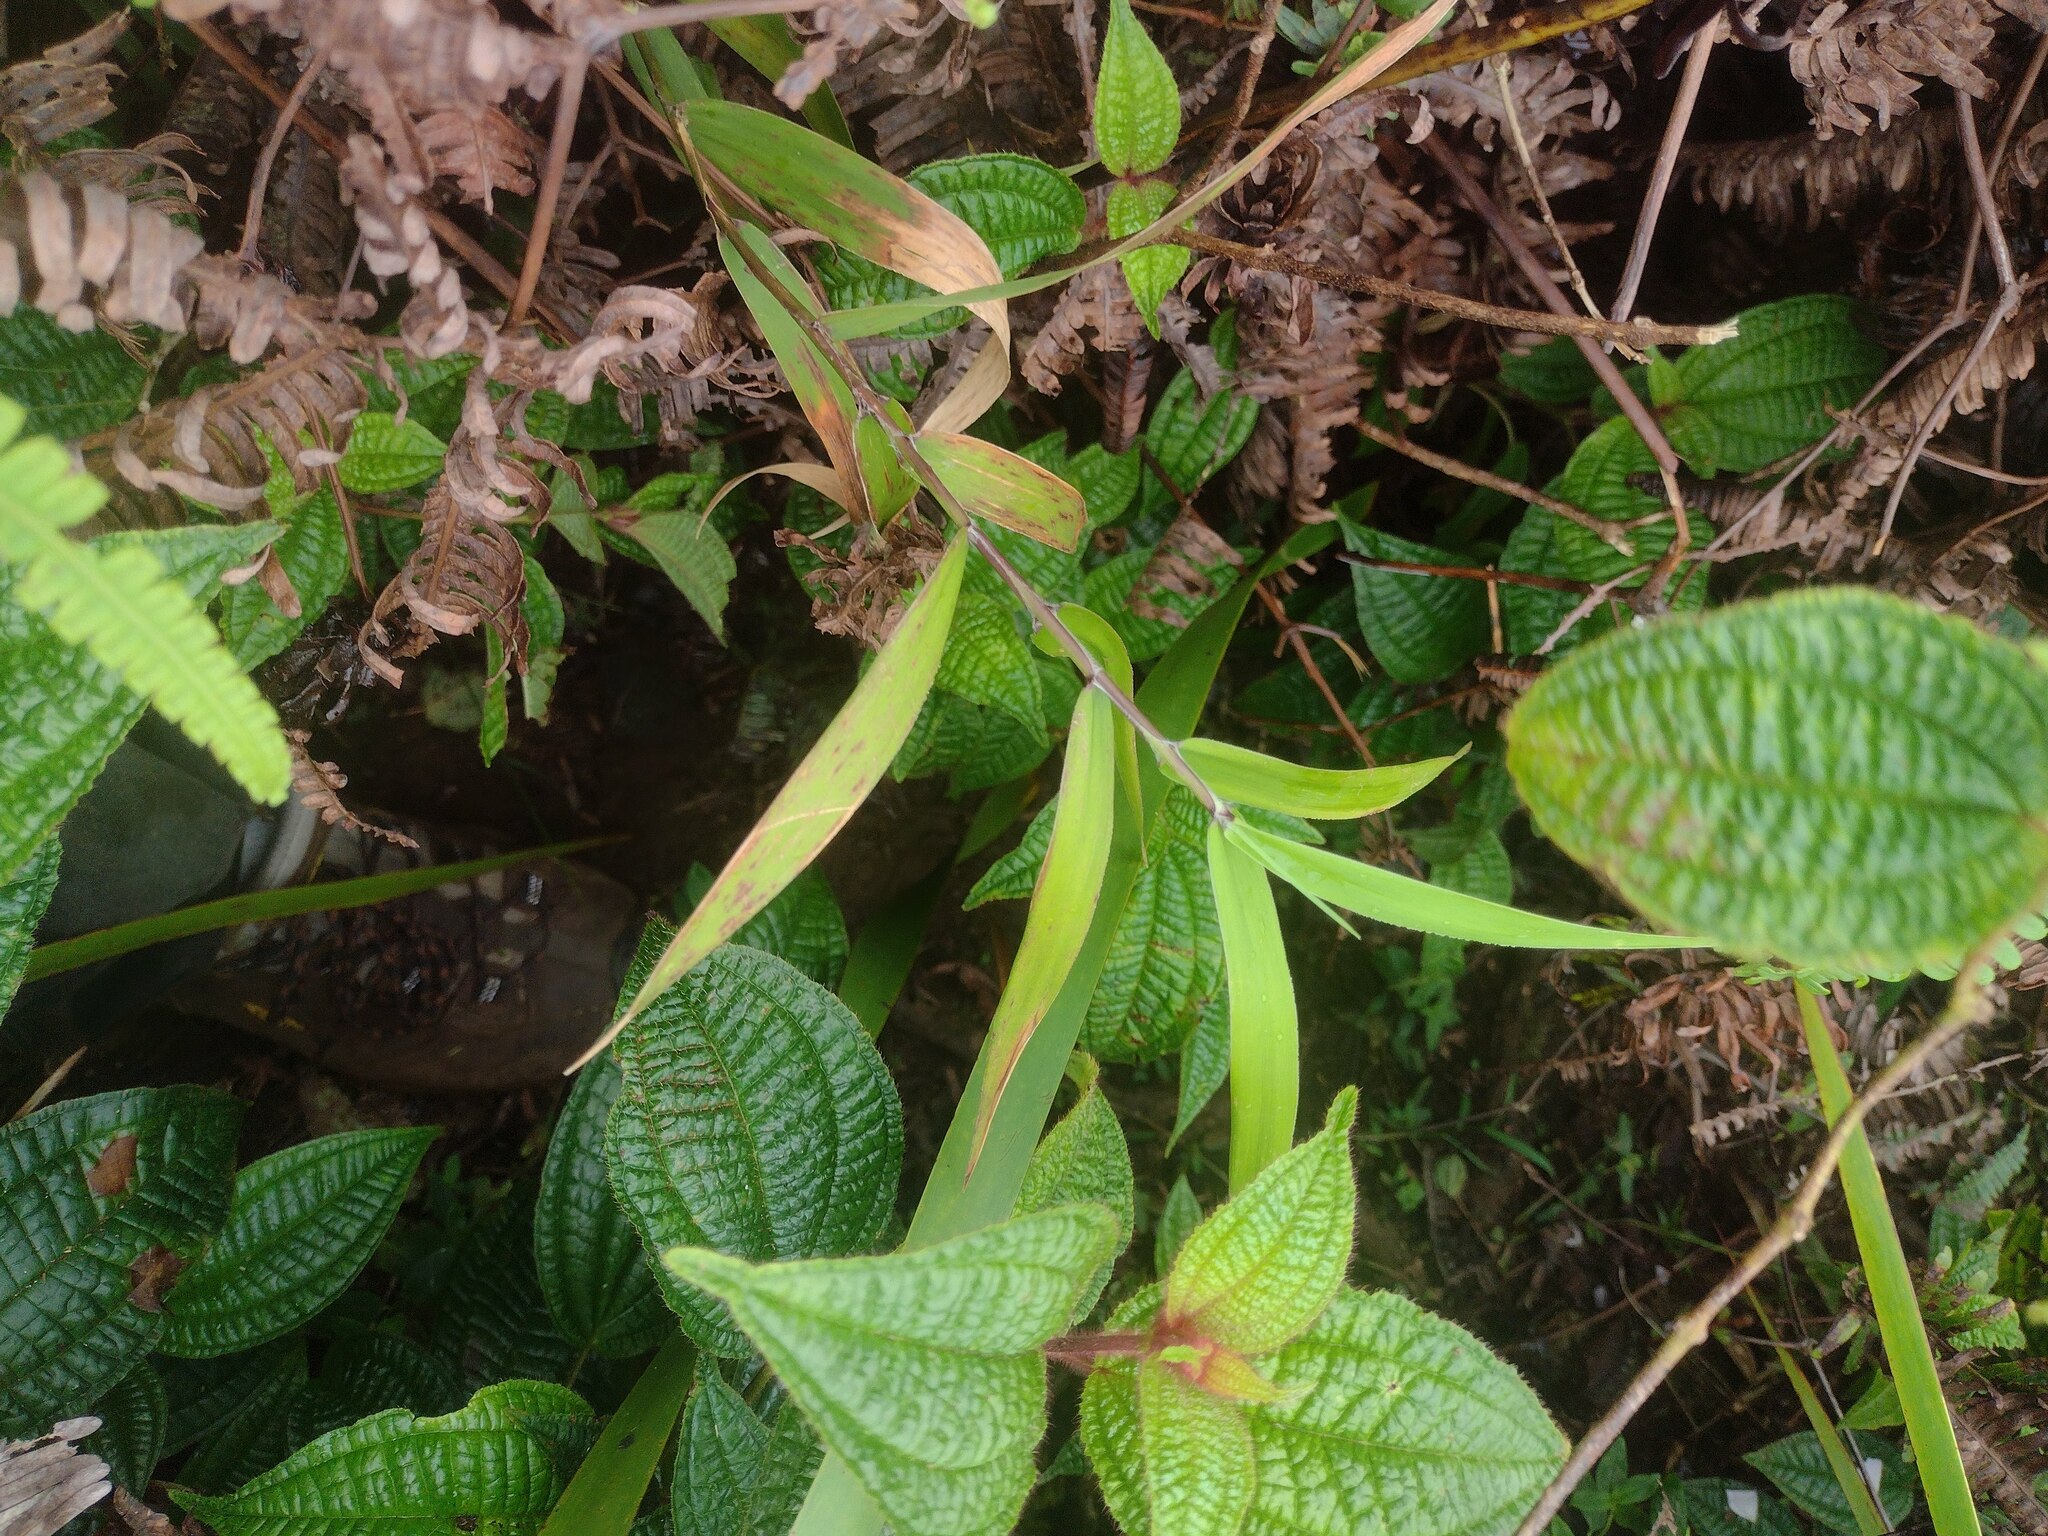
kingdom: Plantae
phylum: Tracheophyta
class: Liliopsida
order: Poales
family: Poaceae
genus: Isachne
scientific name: Isachne distichophylla
